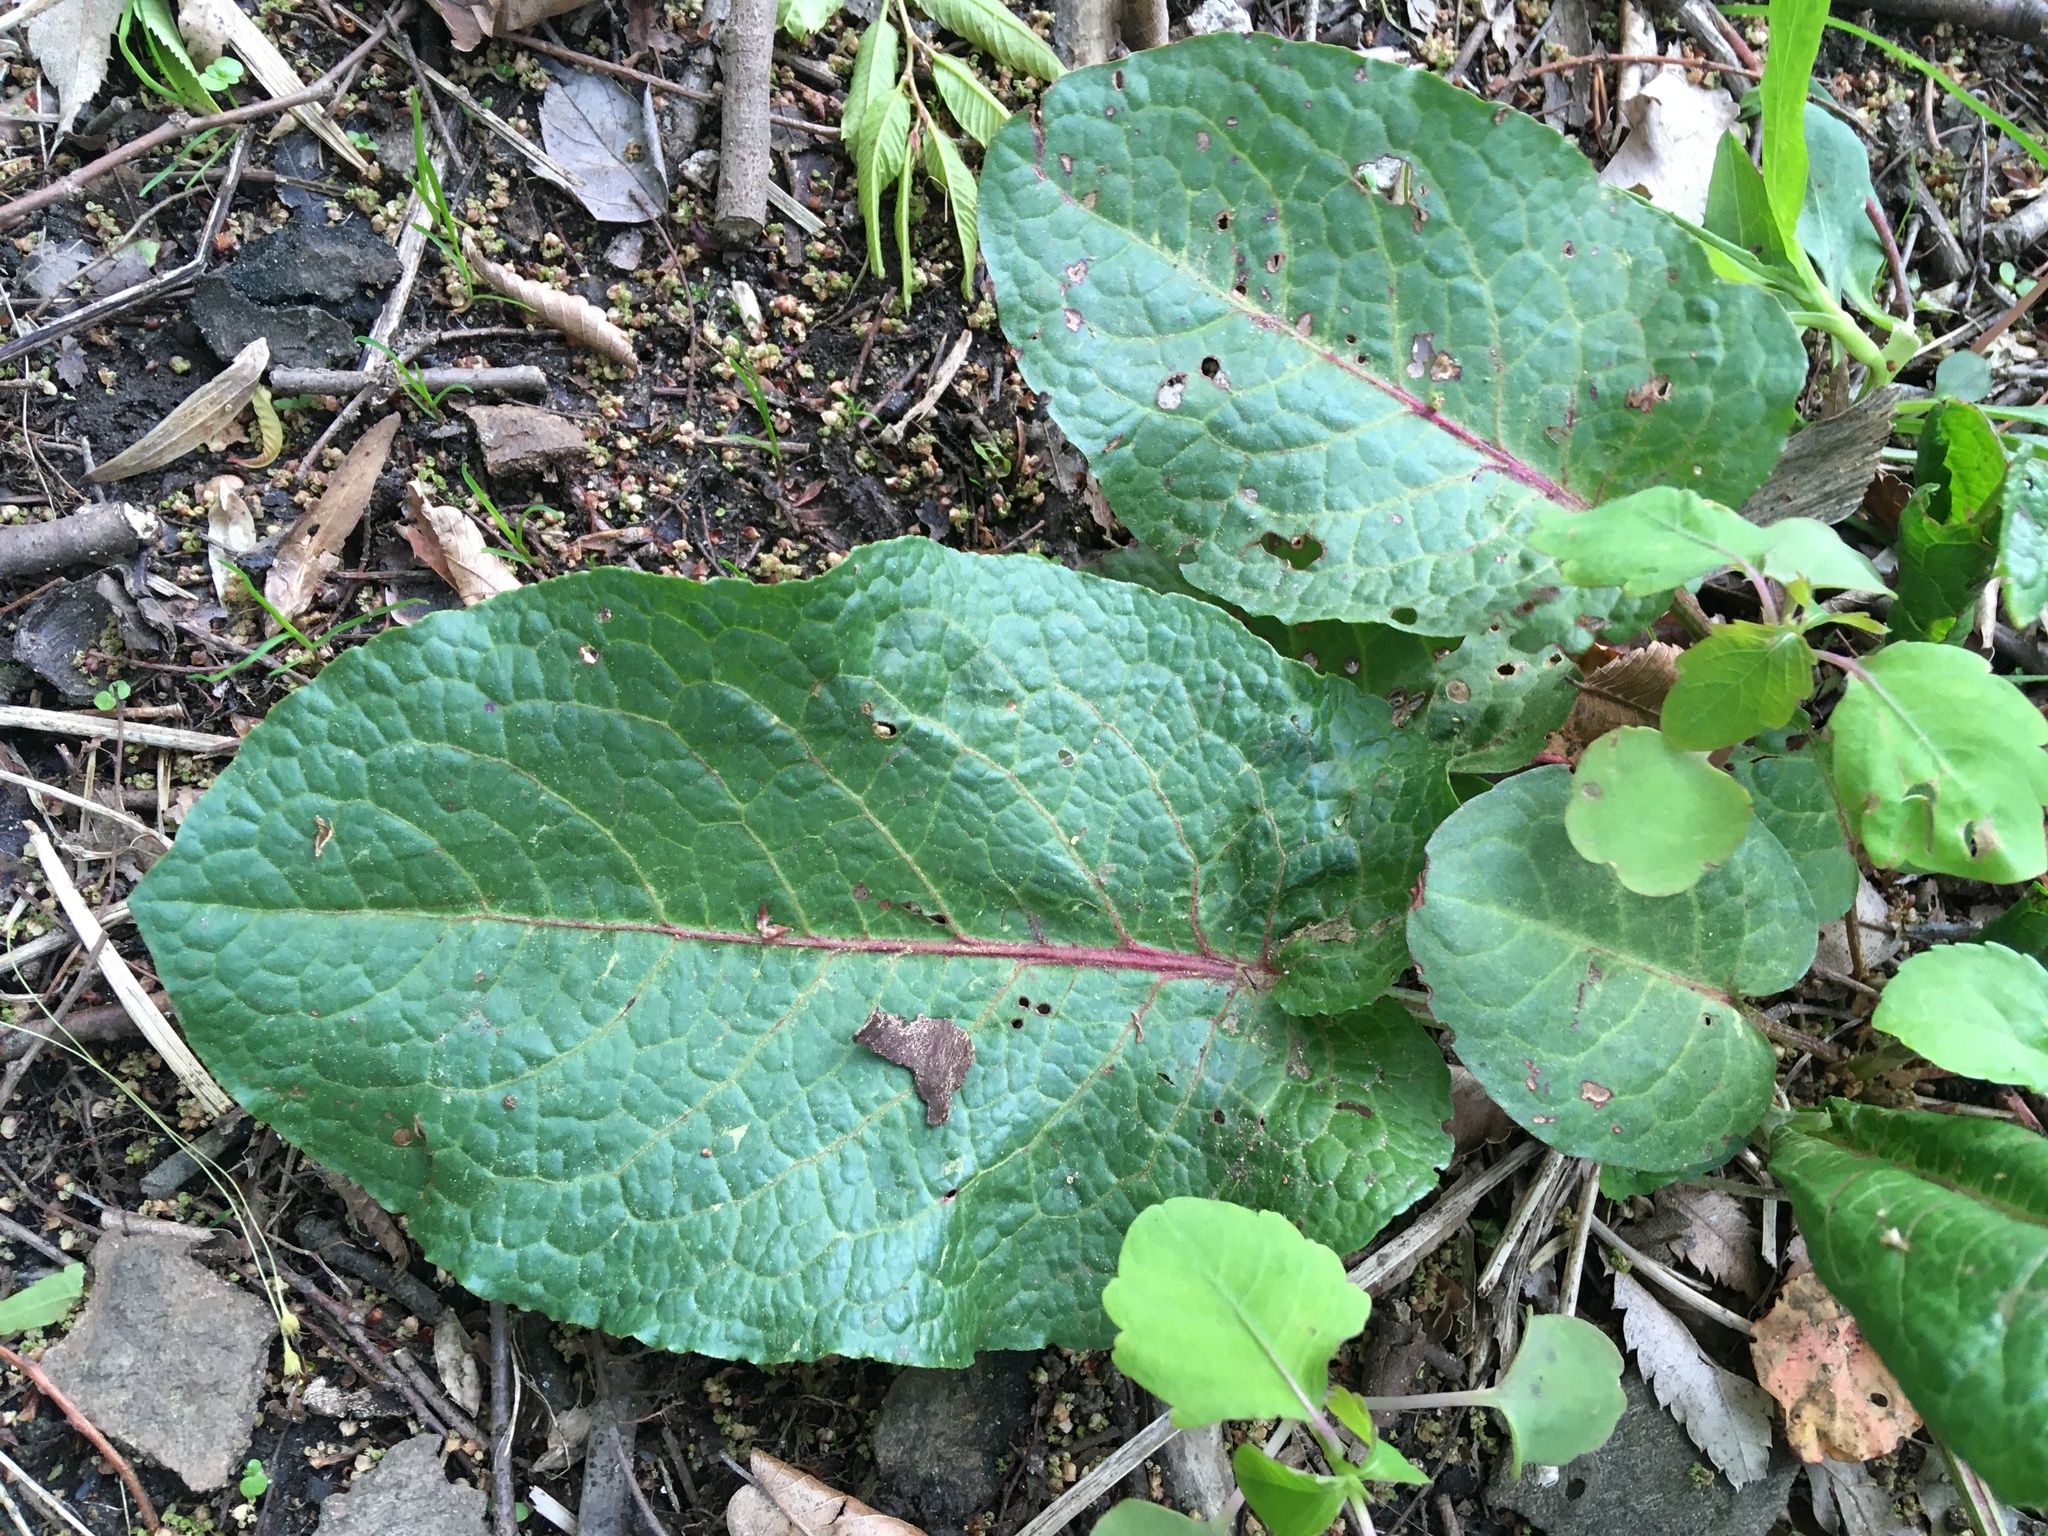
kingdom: Plantae
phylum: Tracheophyta
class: Magnoliopsida
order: Caryophyllales
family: Polygonaceae
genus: Rumex
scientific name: Rumex obtusifolius
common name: Bitter dock
